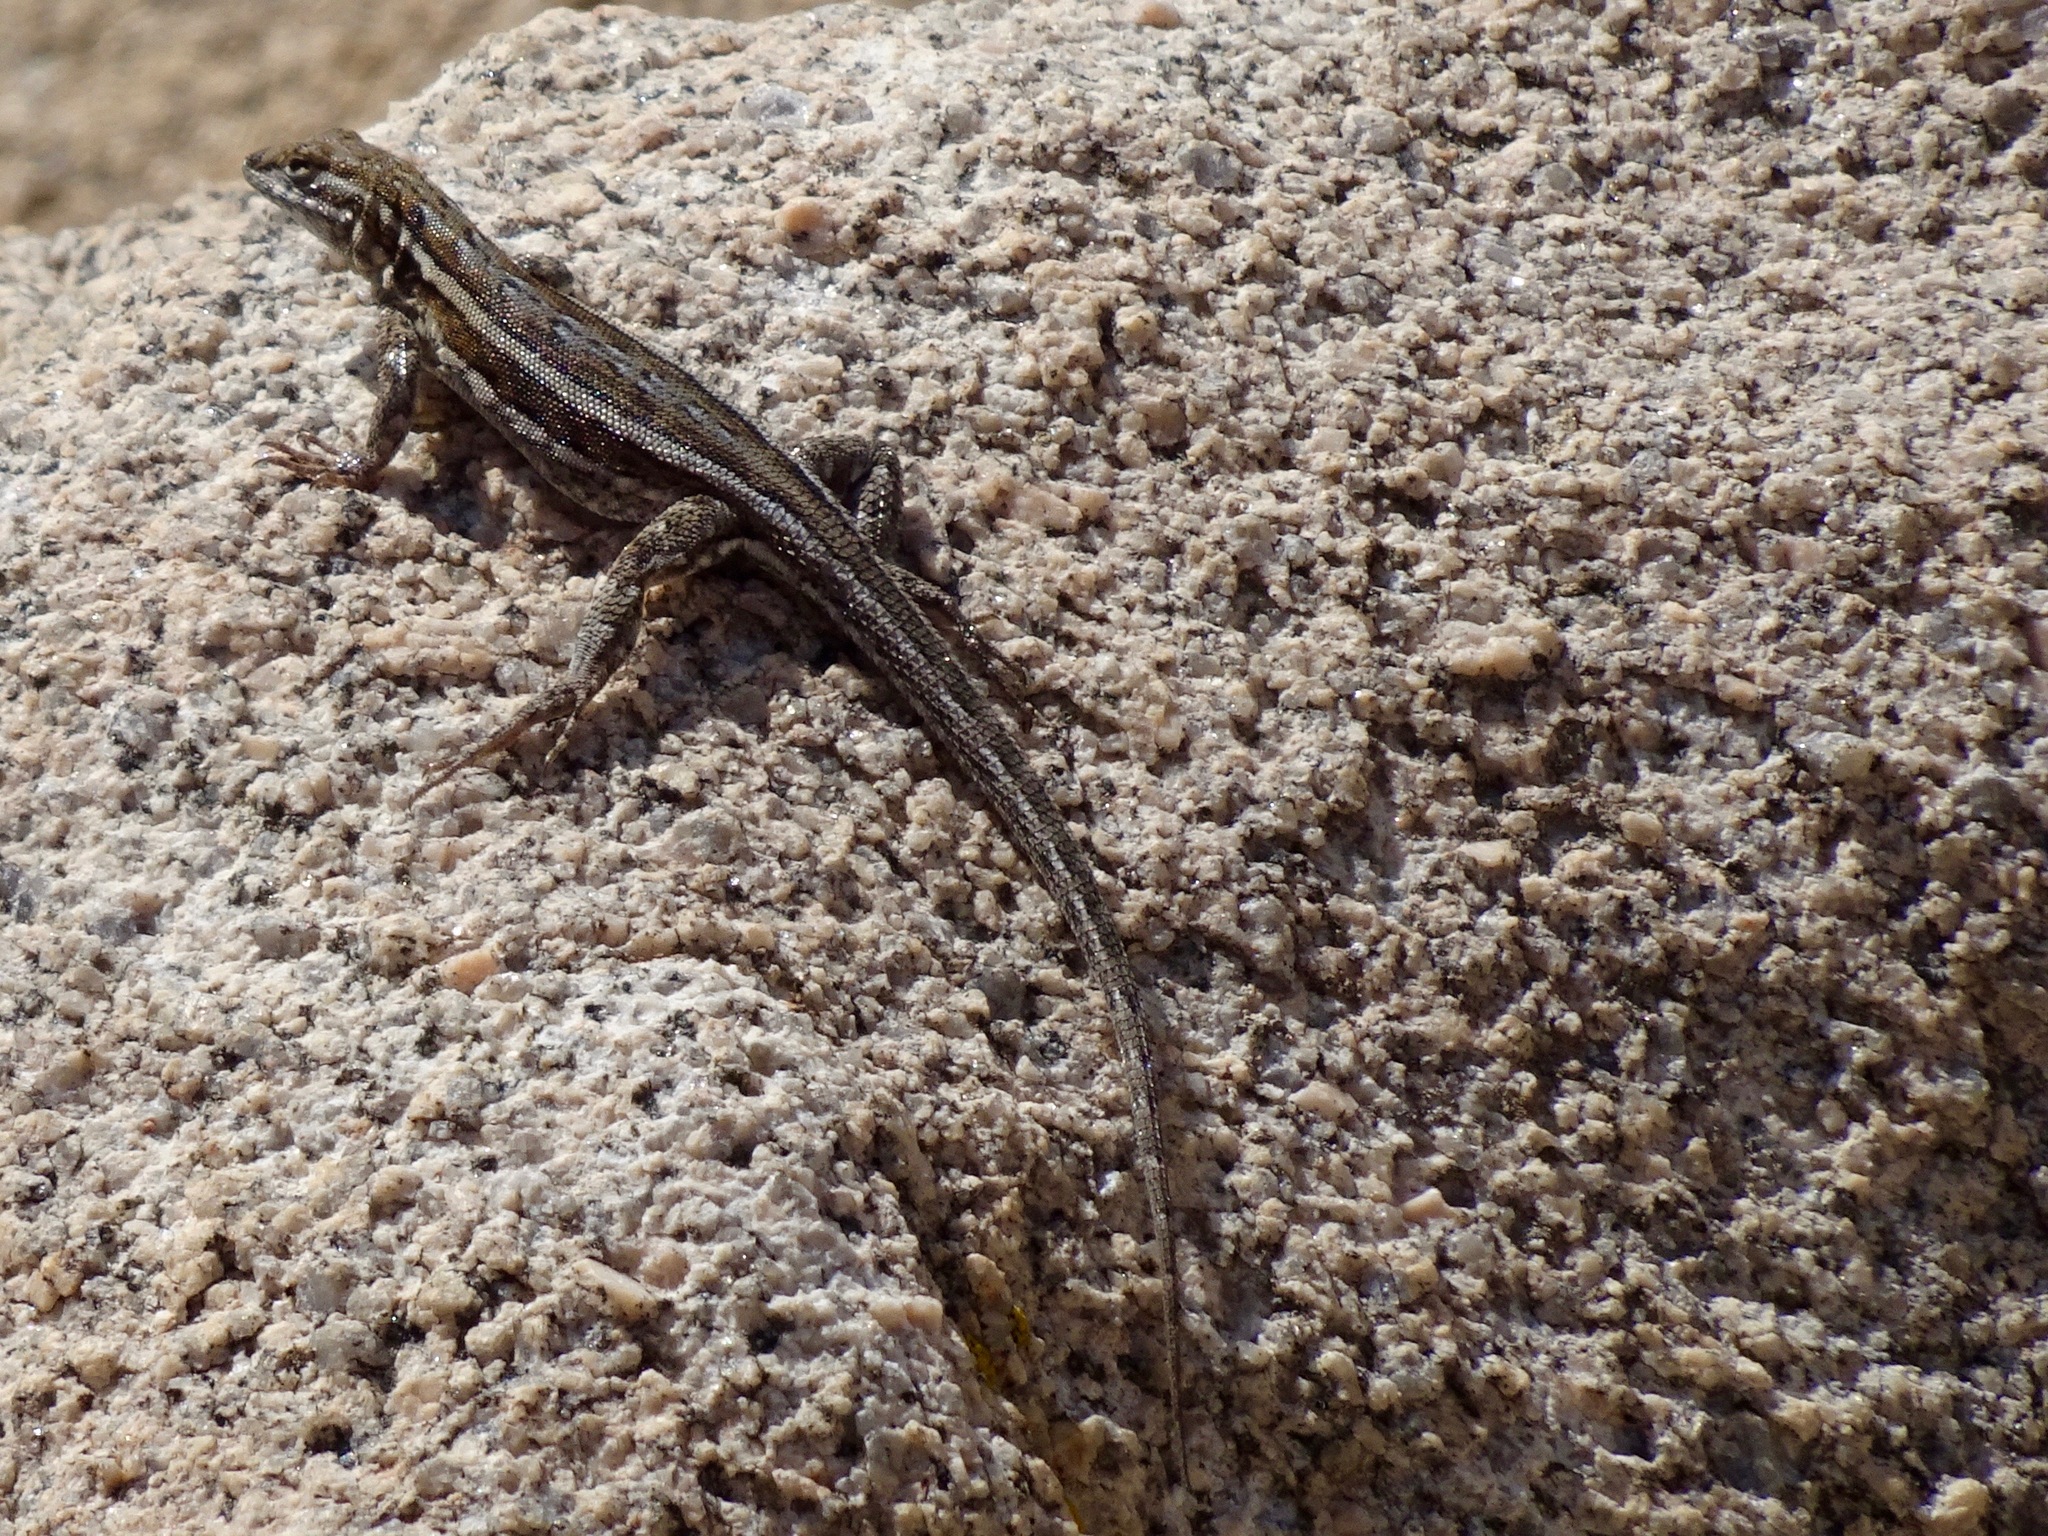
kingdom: Animalia
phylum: Chordata
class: Squamata
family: Phrynosomatidae
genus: Uta
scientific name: Uta stansburiana
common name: Side-blotched lizard
